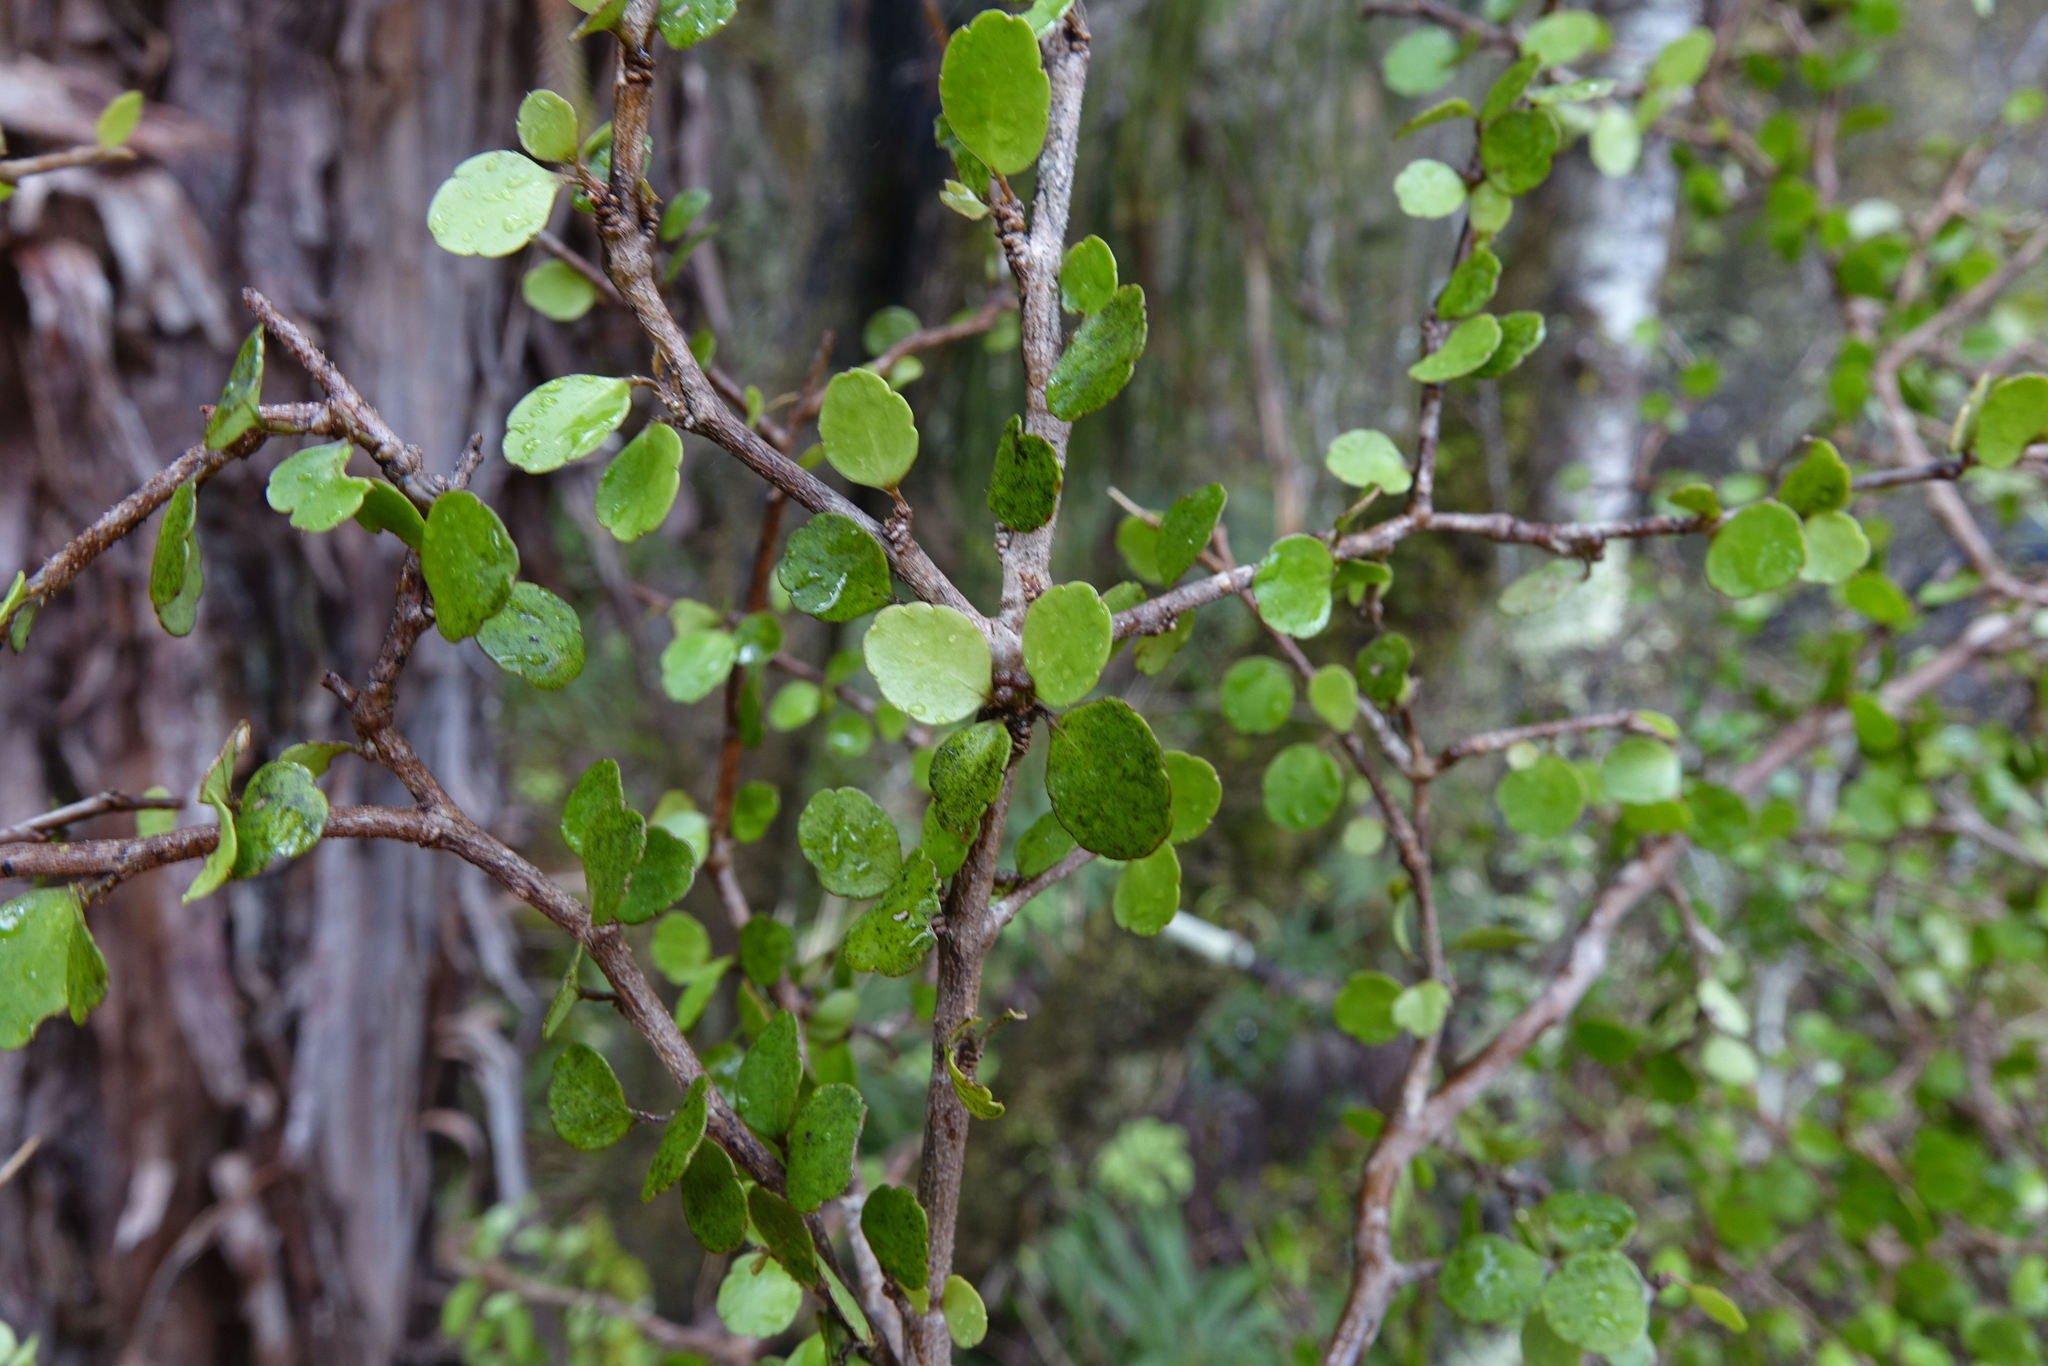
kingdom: Plantae
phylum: Tracheophyta
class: Magnoliopsida
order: Apiales
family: Araliaceae
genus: Raukaua
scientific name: Raukaua anomalus
